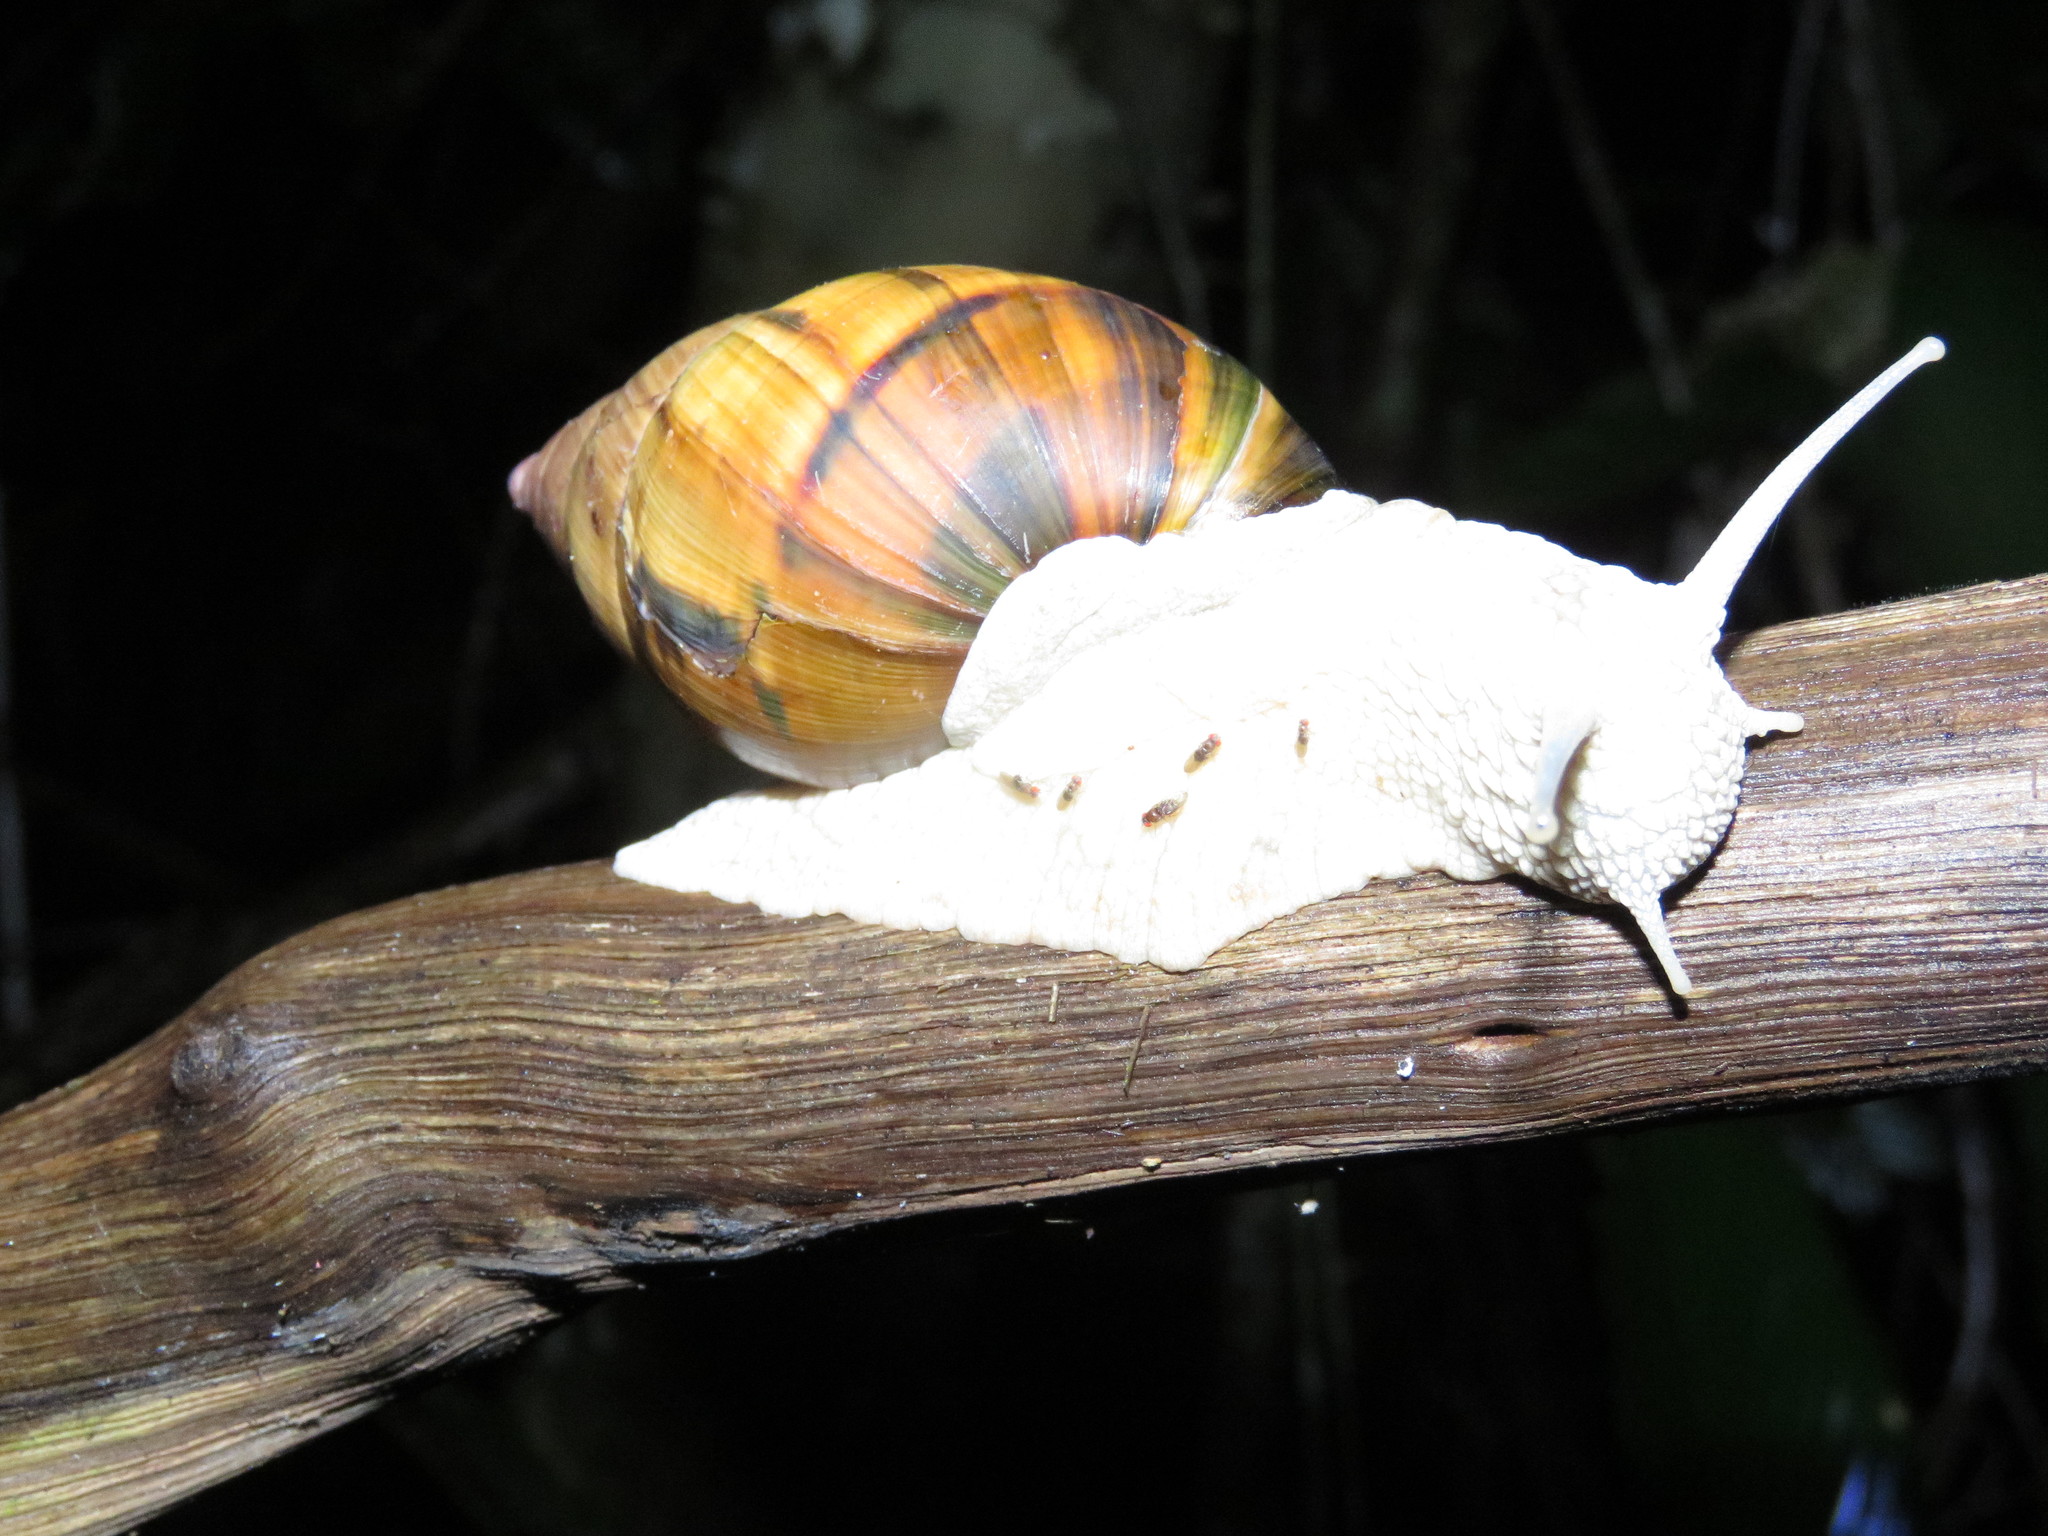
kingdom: Animalia
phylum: Mollusca
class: Gastropoda
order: Stylommatophora
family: Orthalicidae
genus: Corona
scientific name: Corona incisa
